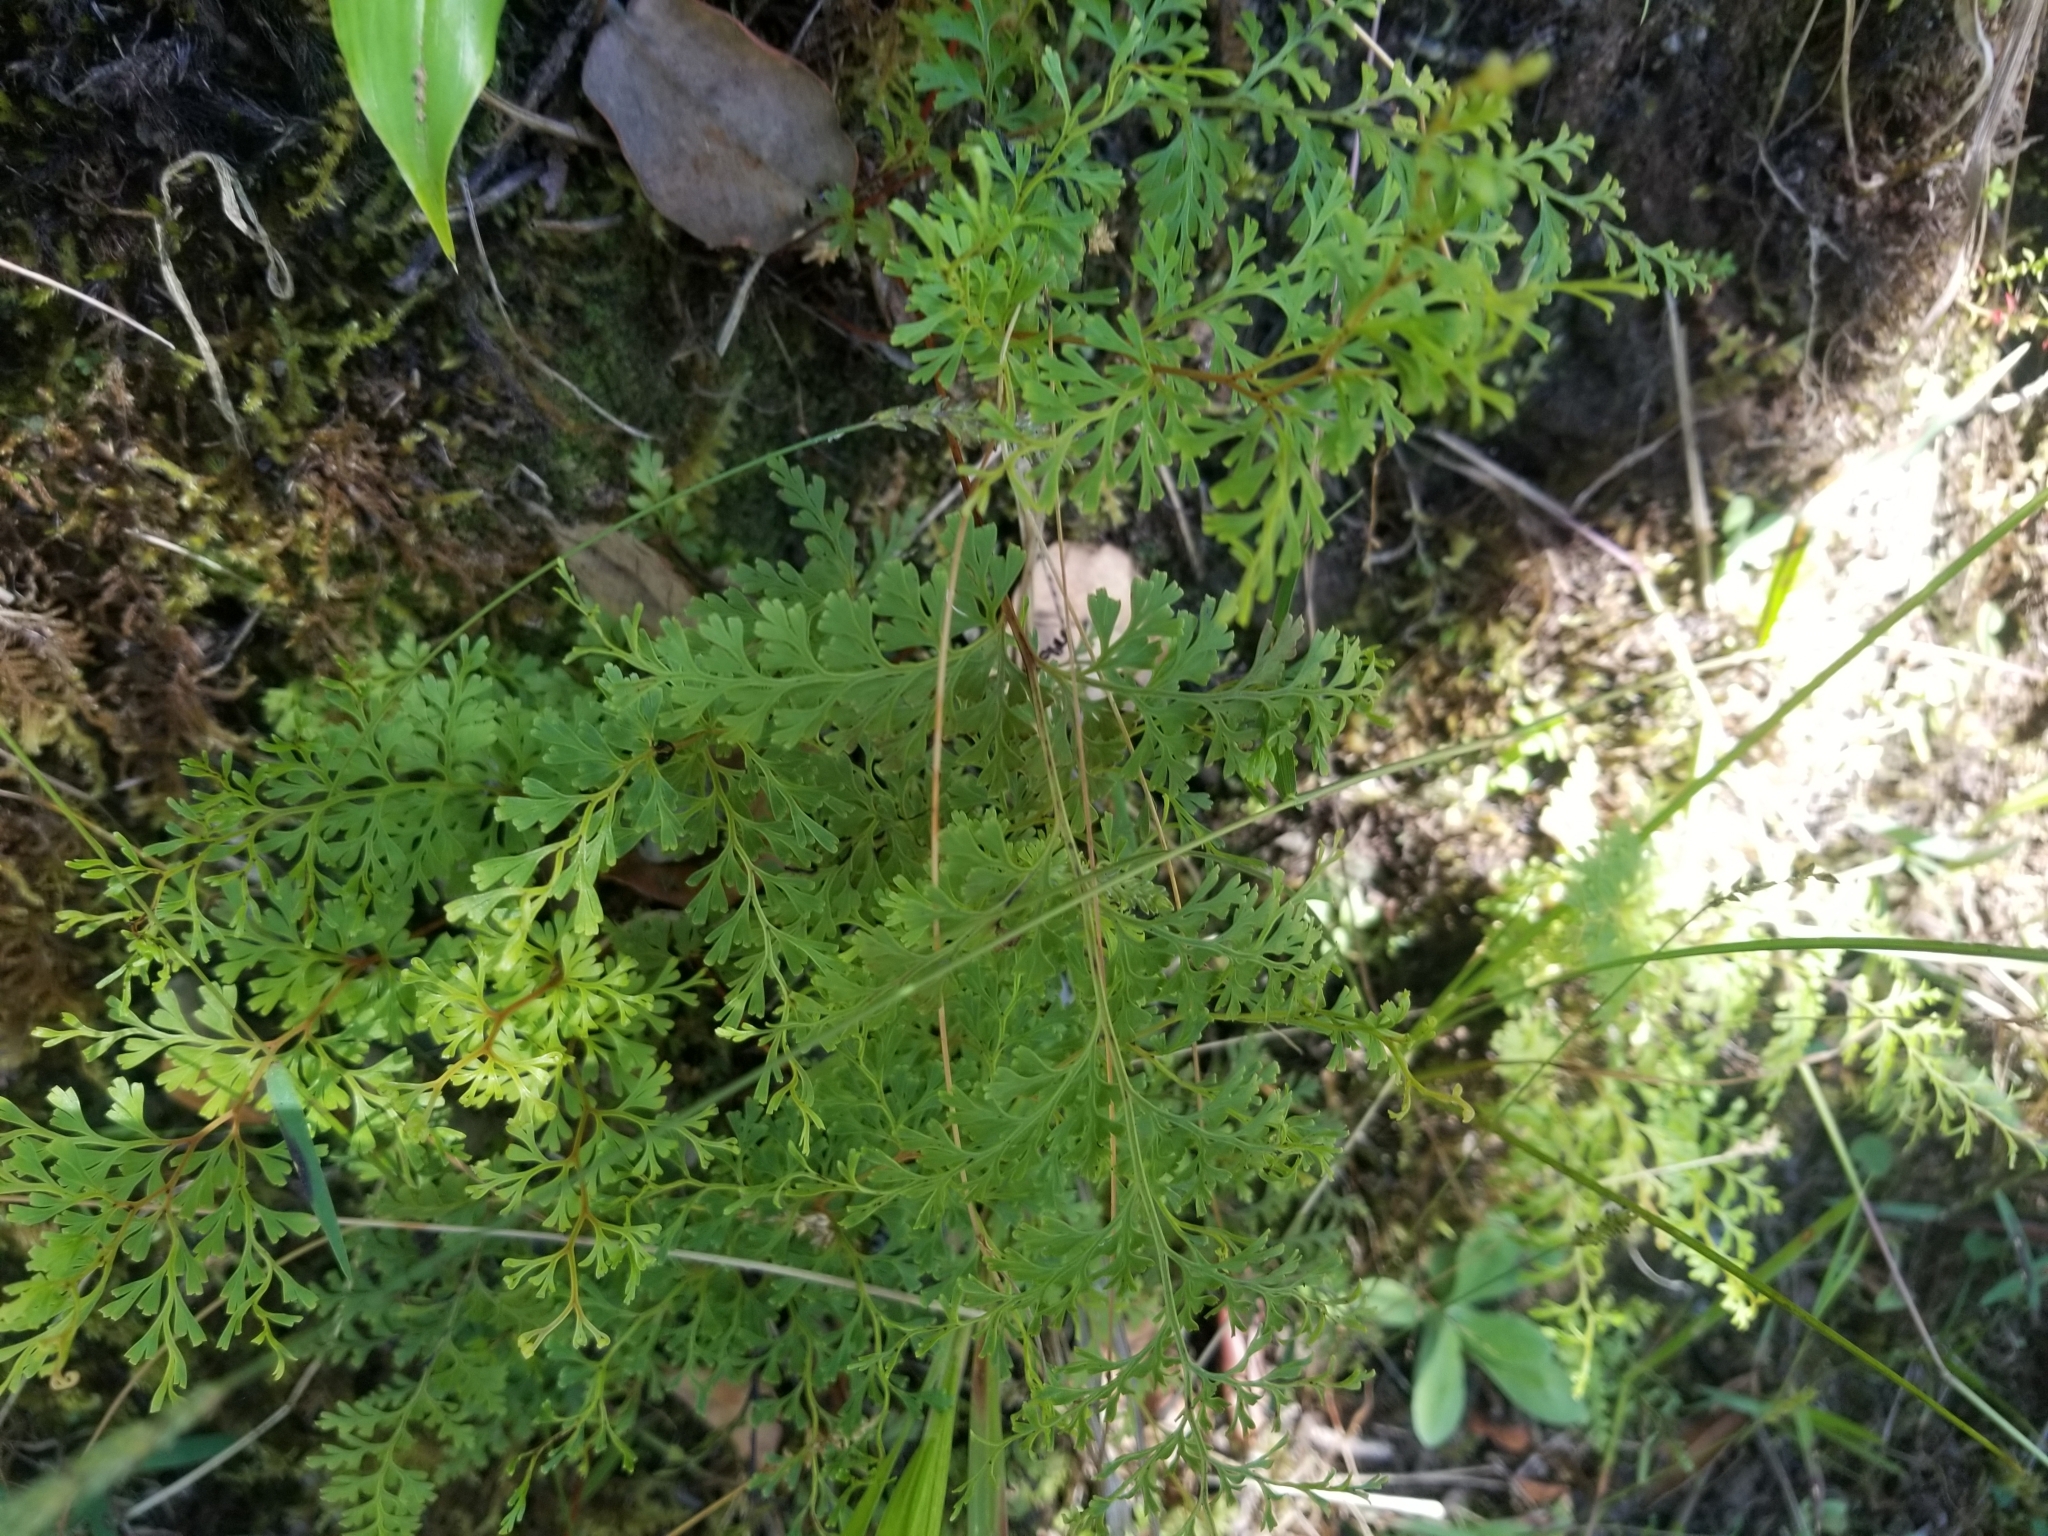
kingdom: Plantae
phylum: Tracheophyta
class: Polypodiopsida
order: Polypodiales
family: Lindsaeaceae
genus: Odontosoria
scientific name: Odontosoria chinensis
